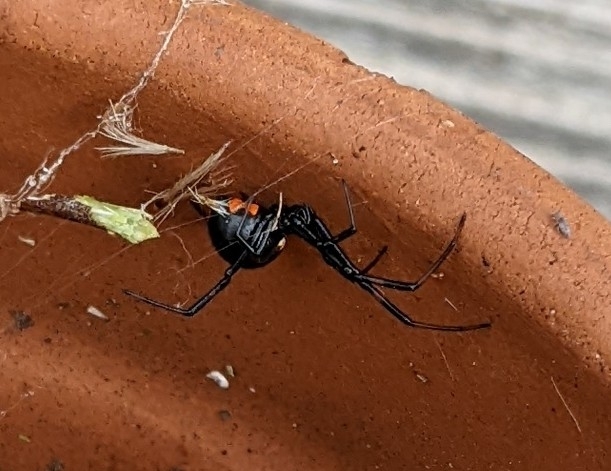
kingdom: Animalia
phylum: Arthropoda
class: Arachnida
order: Araneae
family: Theridiidae
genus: Latrodectus
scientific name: Latrodectus mactans
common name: Cobweb spiders
